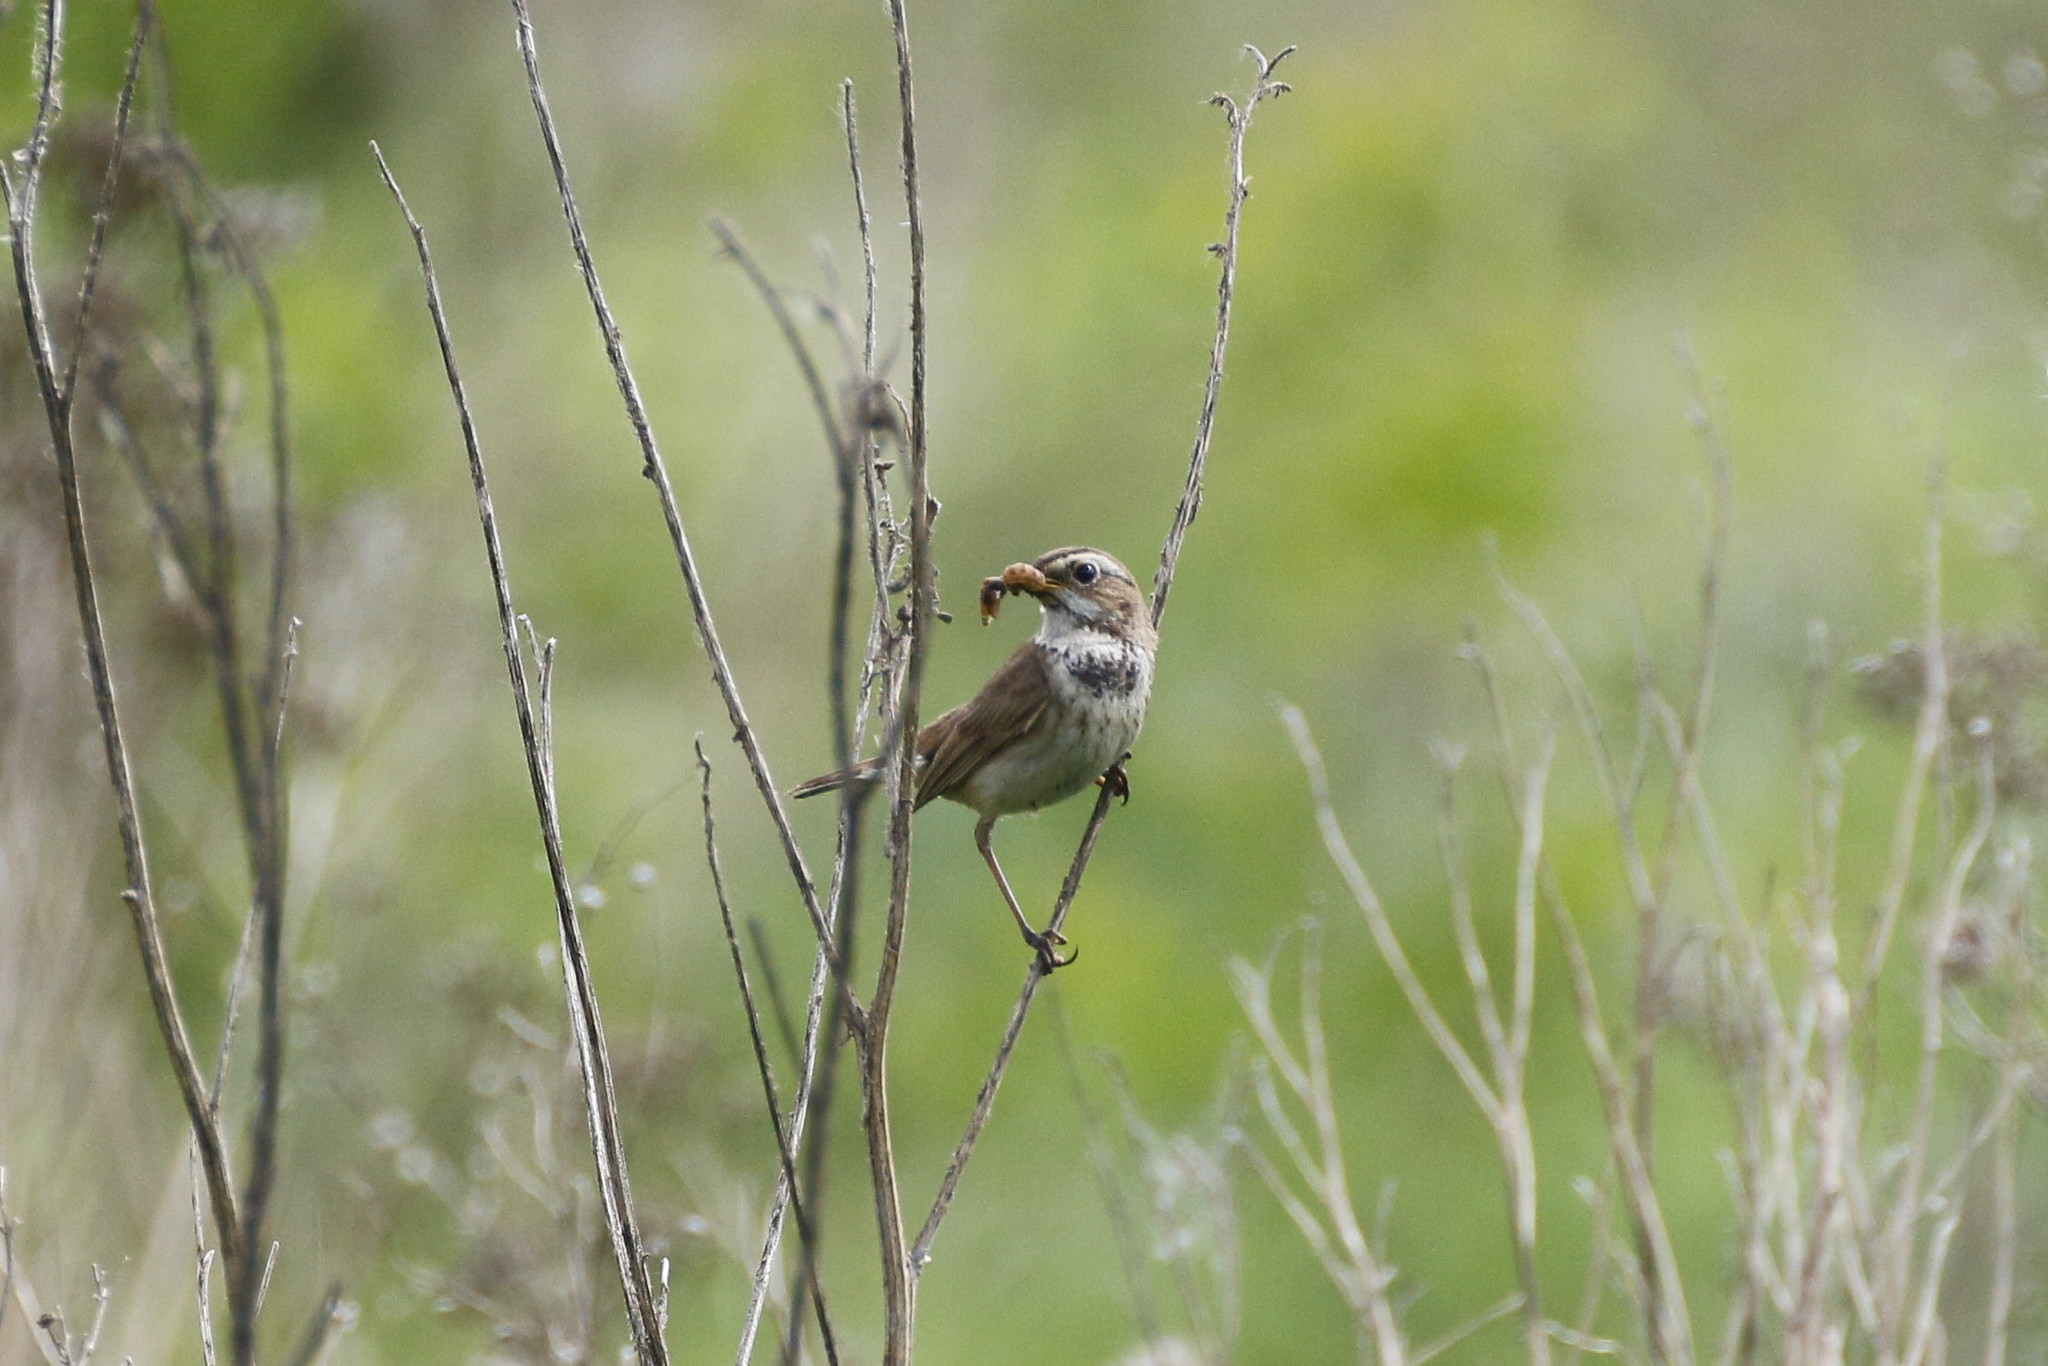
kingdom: Animalia
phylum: Chordata
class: Aves
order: Passeriformes
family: Muscicapidae
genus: Luscinia
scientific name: Luscinia svecica
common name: Bluethroat
